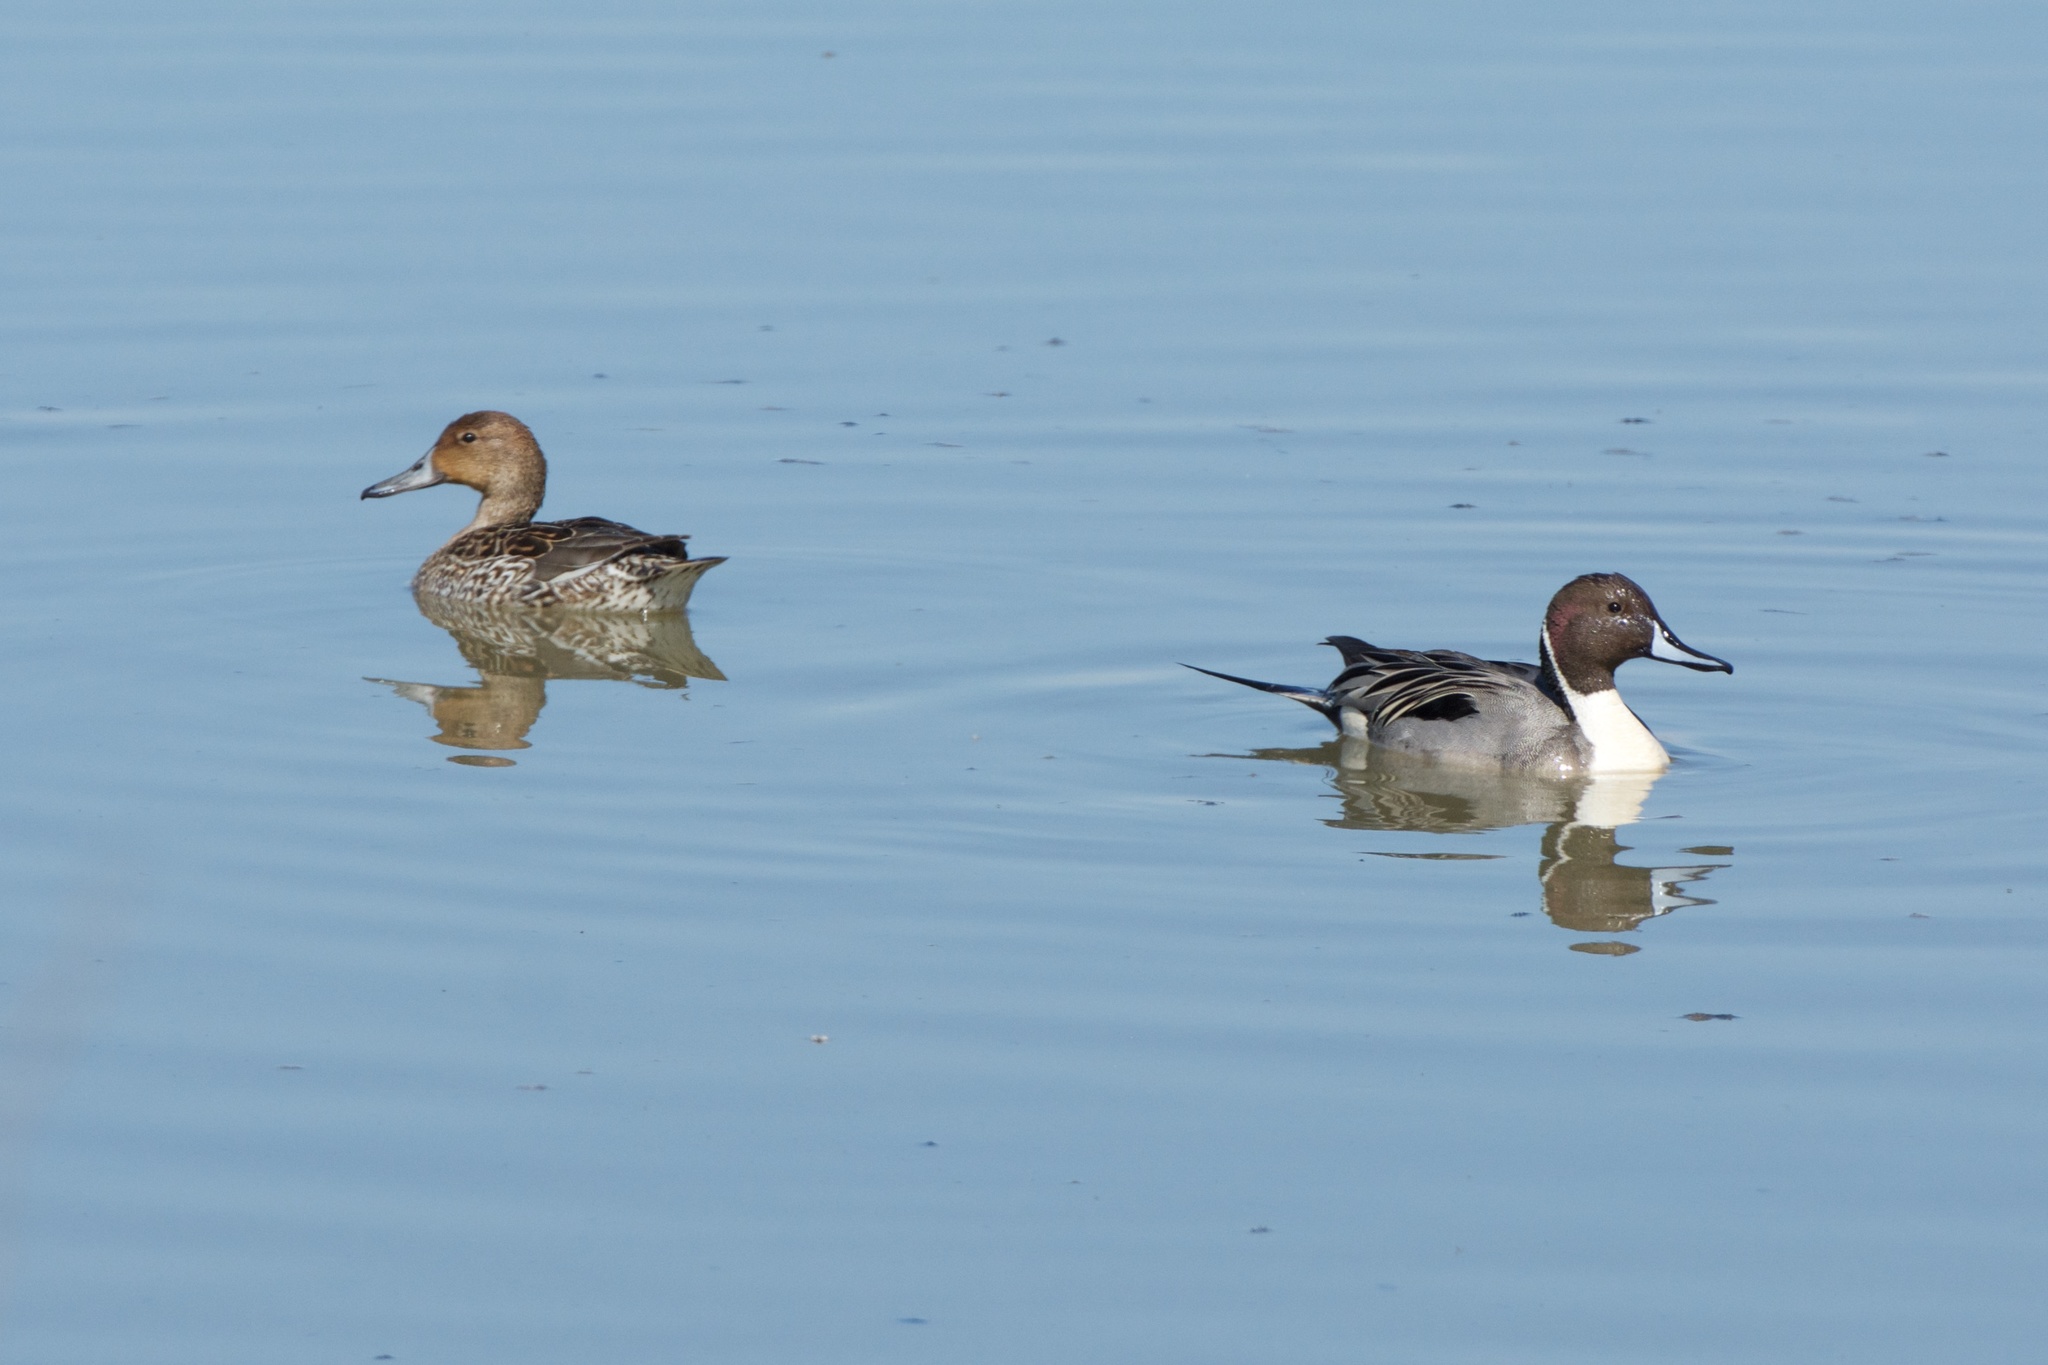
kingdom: Animalia
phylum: Chordata
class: Aves
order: Anseriformes
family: Anatidae
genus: Anas
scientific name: Anas acuta
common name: Northern pintail
